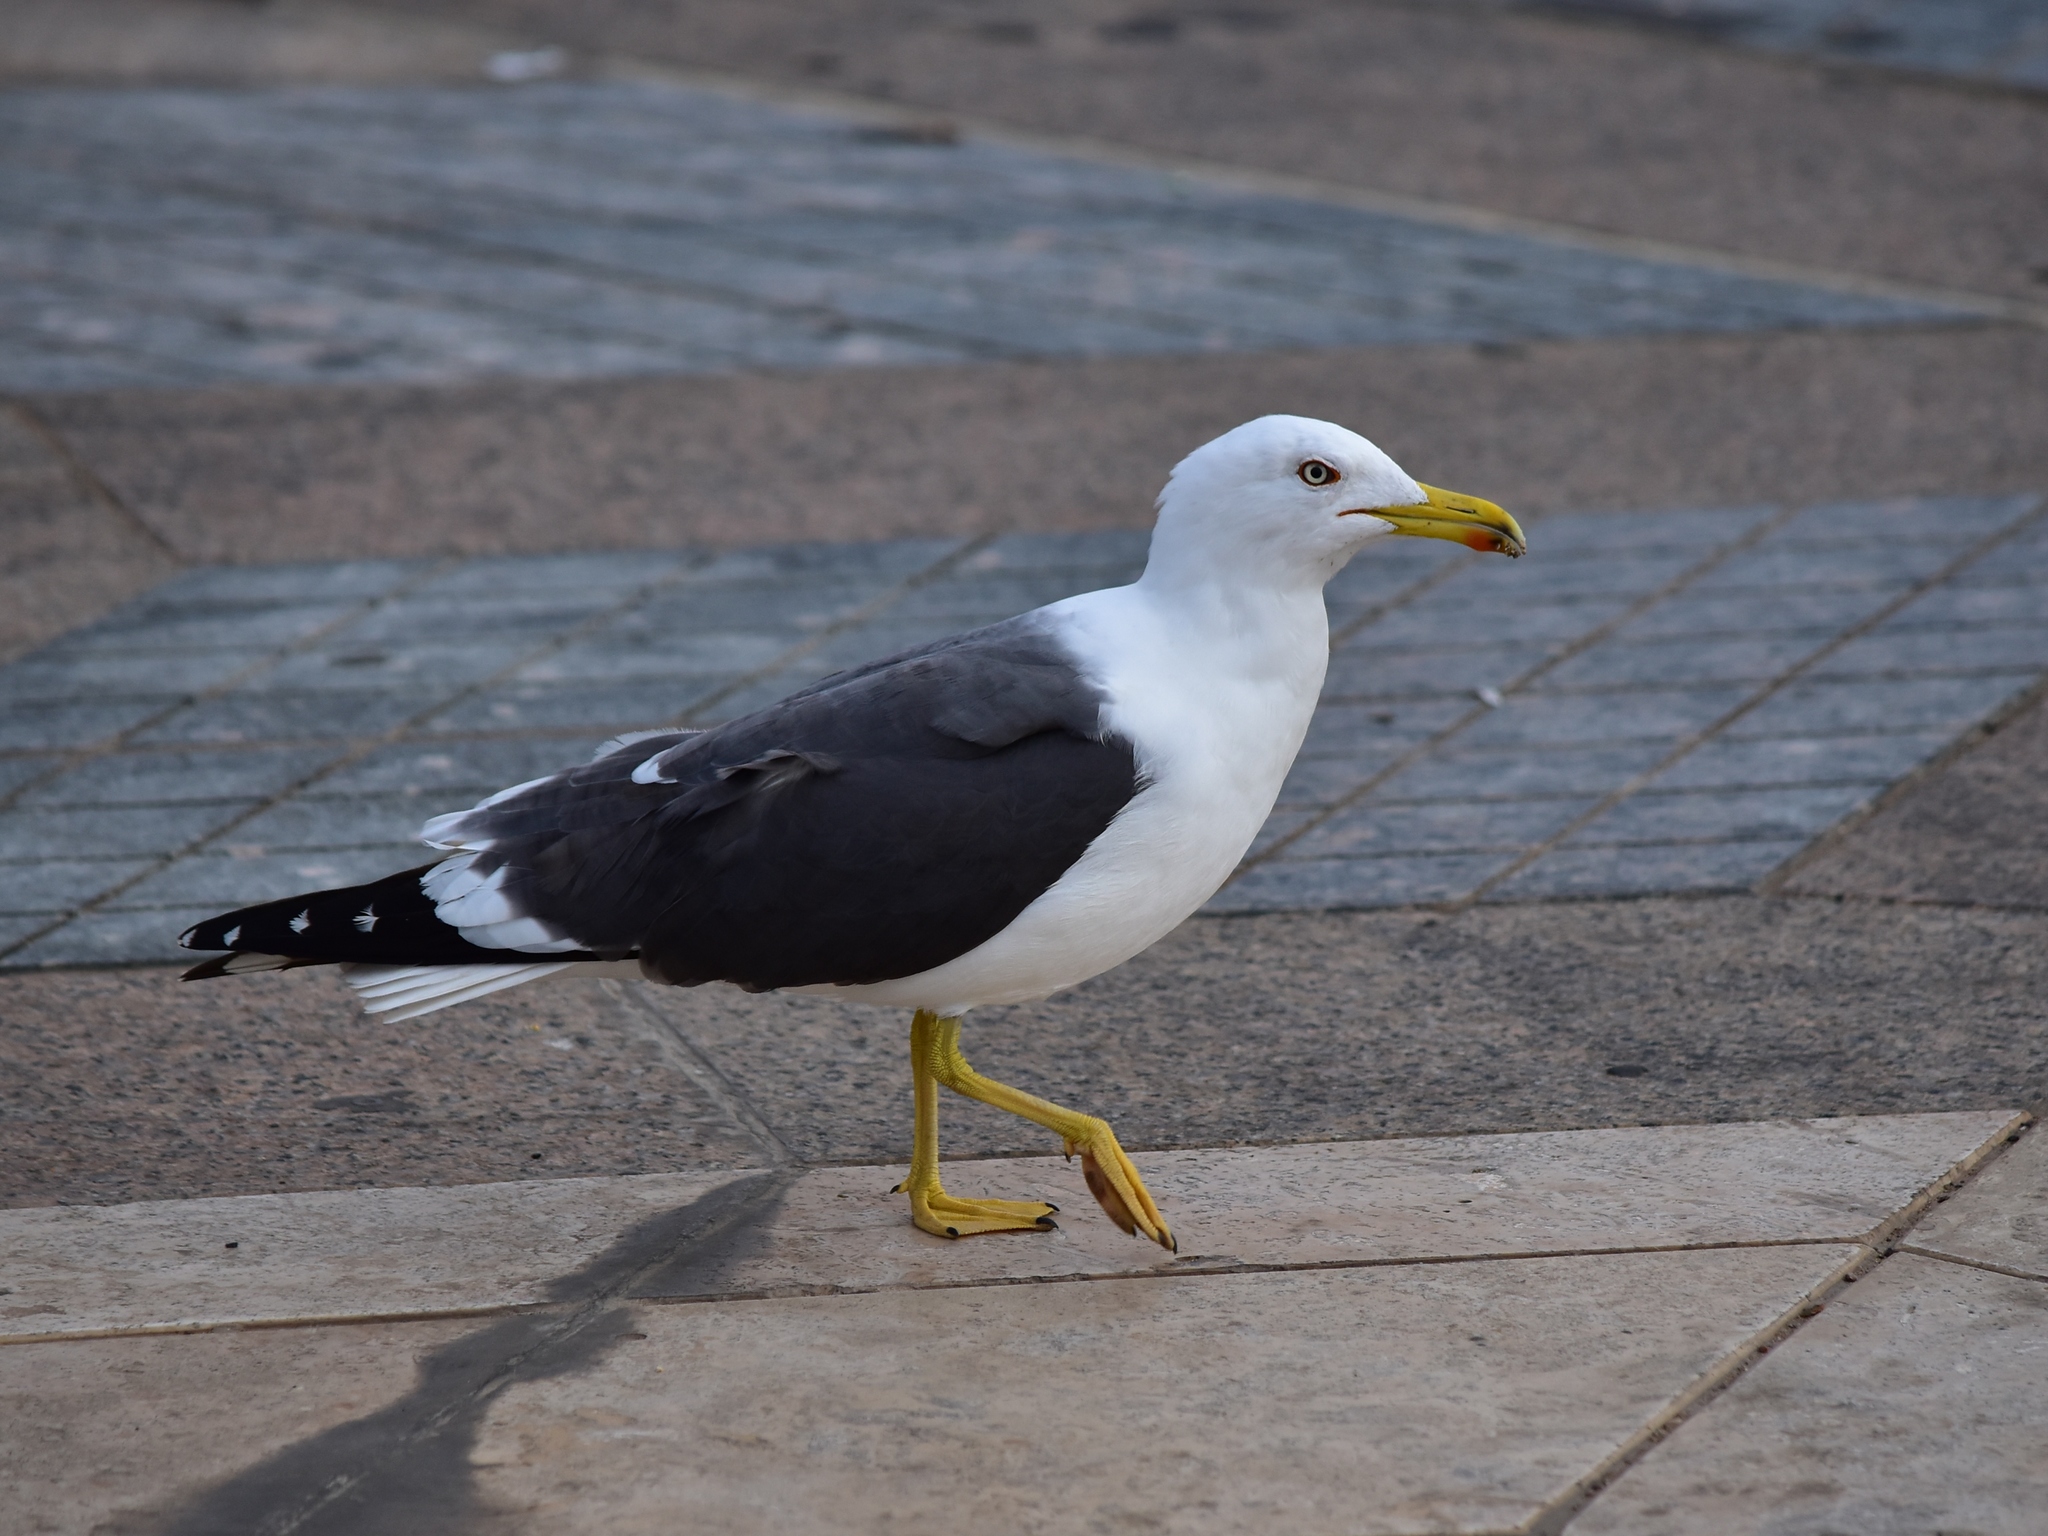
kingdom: Animalia
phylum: Chordata
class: Aves
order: Charadriiformes
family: Laridae
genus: Larus
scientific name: Larus fuscus
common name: Lesser black-backed gull
